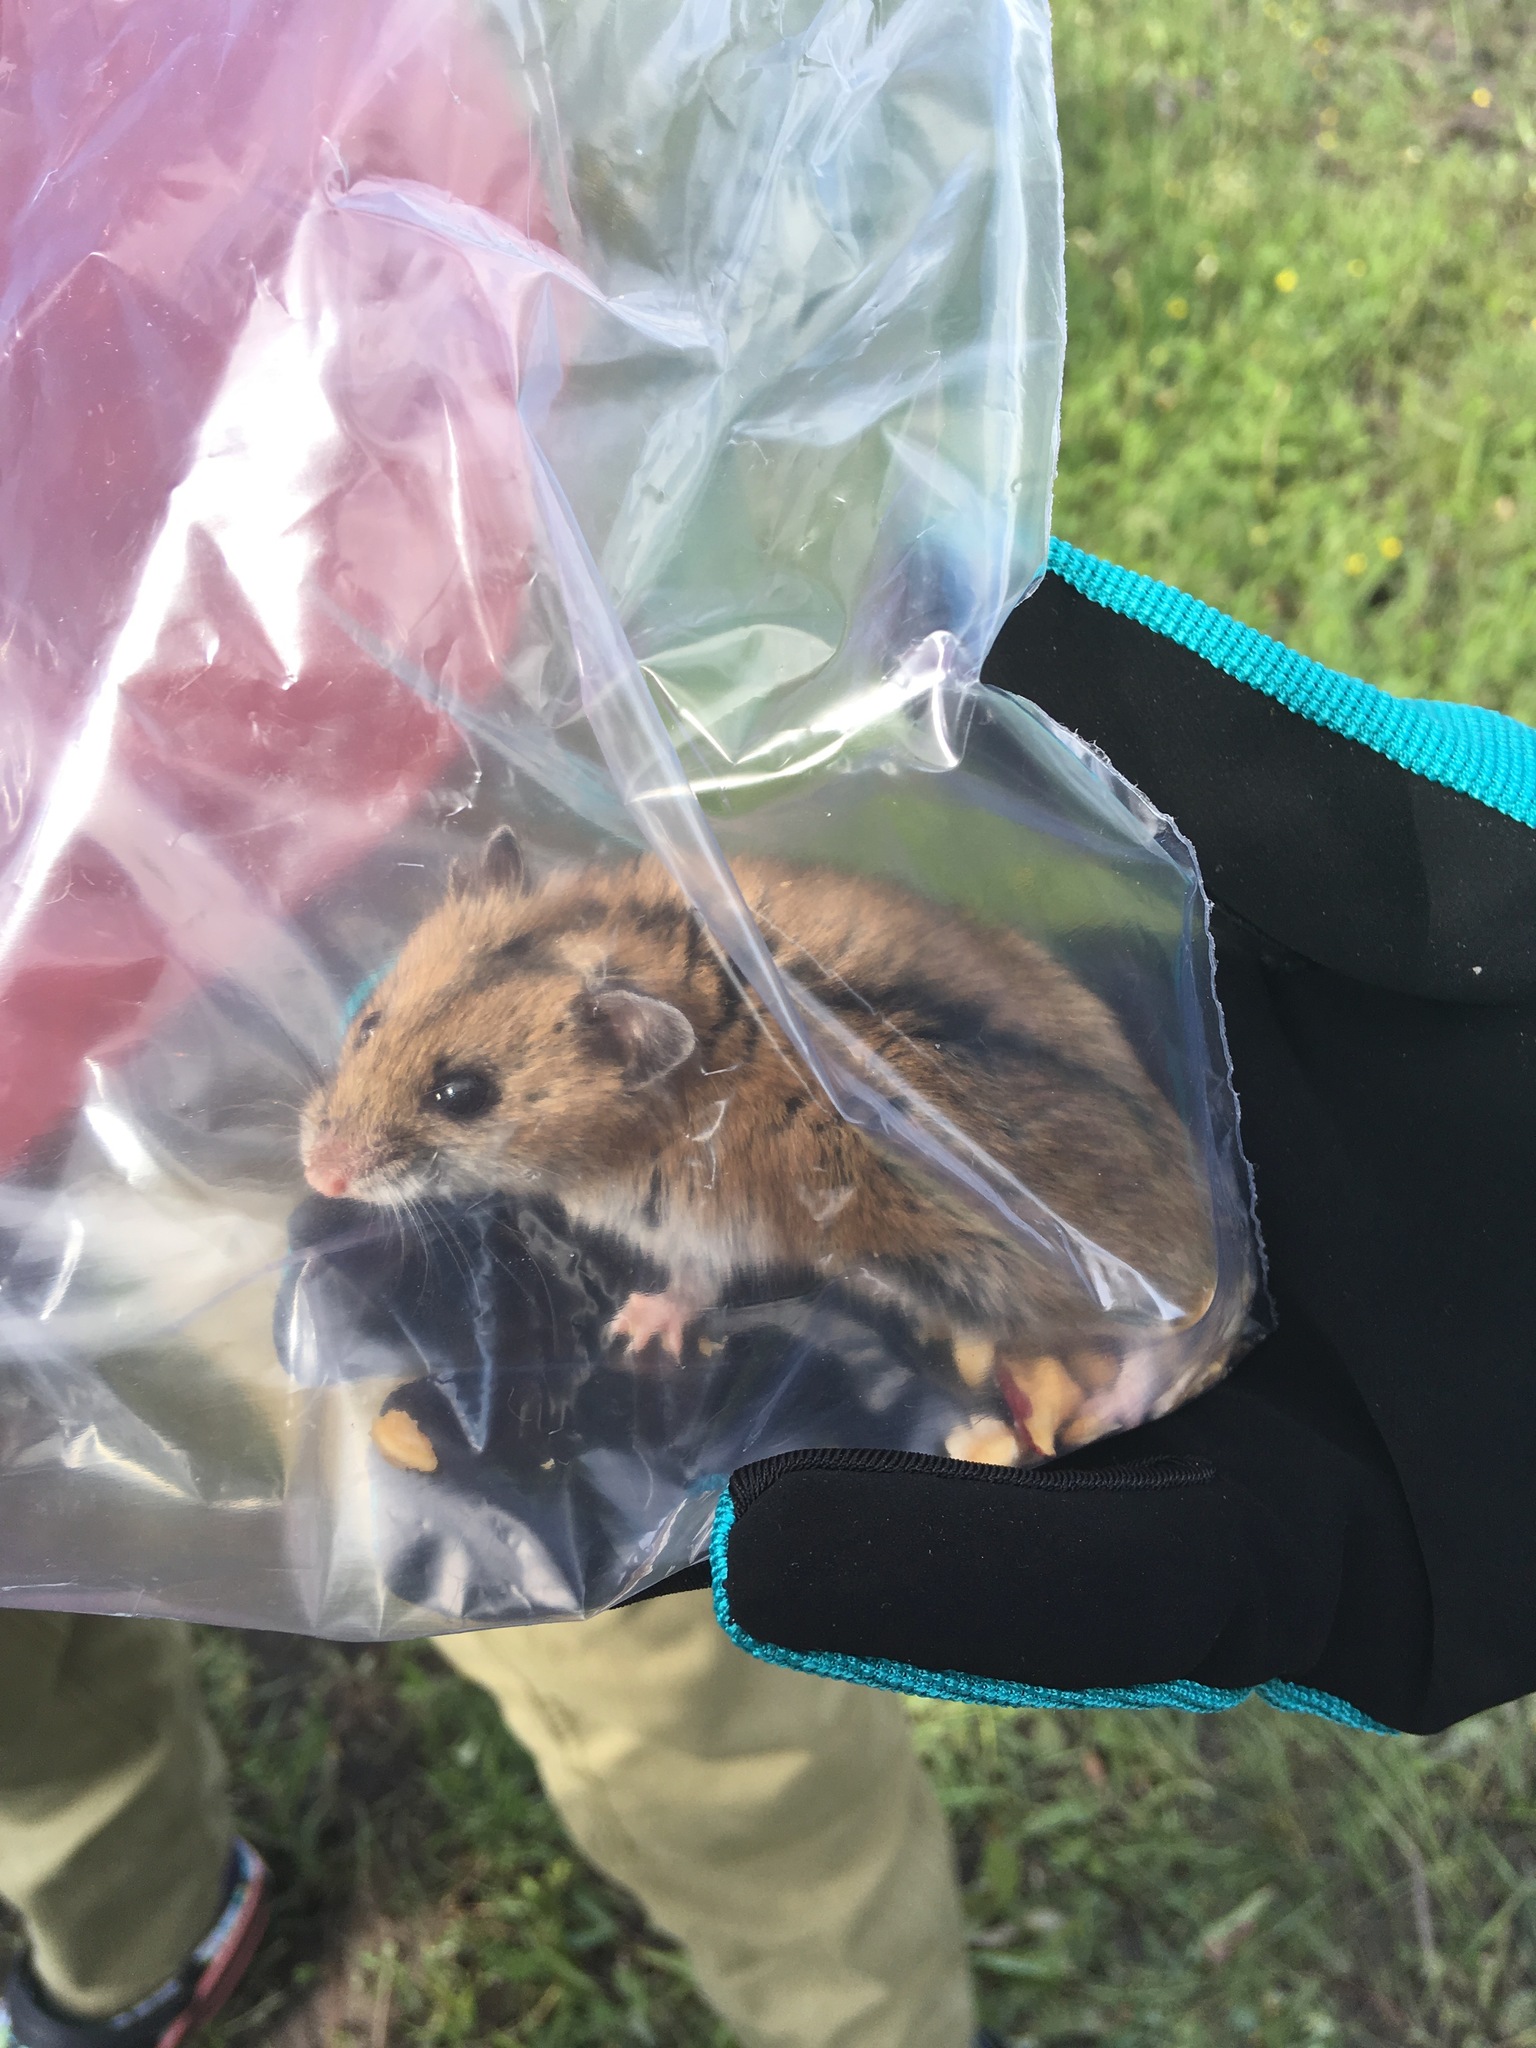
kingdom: Animalia
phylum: Chordata
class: Mammalia
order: Rodentia
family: Cricetidae
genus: Cricetulus
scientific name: Cricetulus barabensis
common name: Striped dwarf hamster
